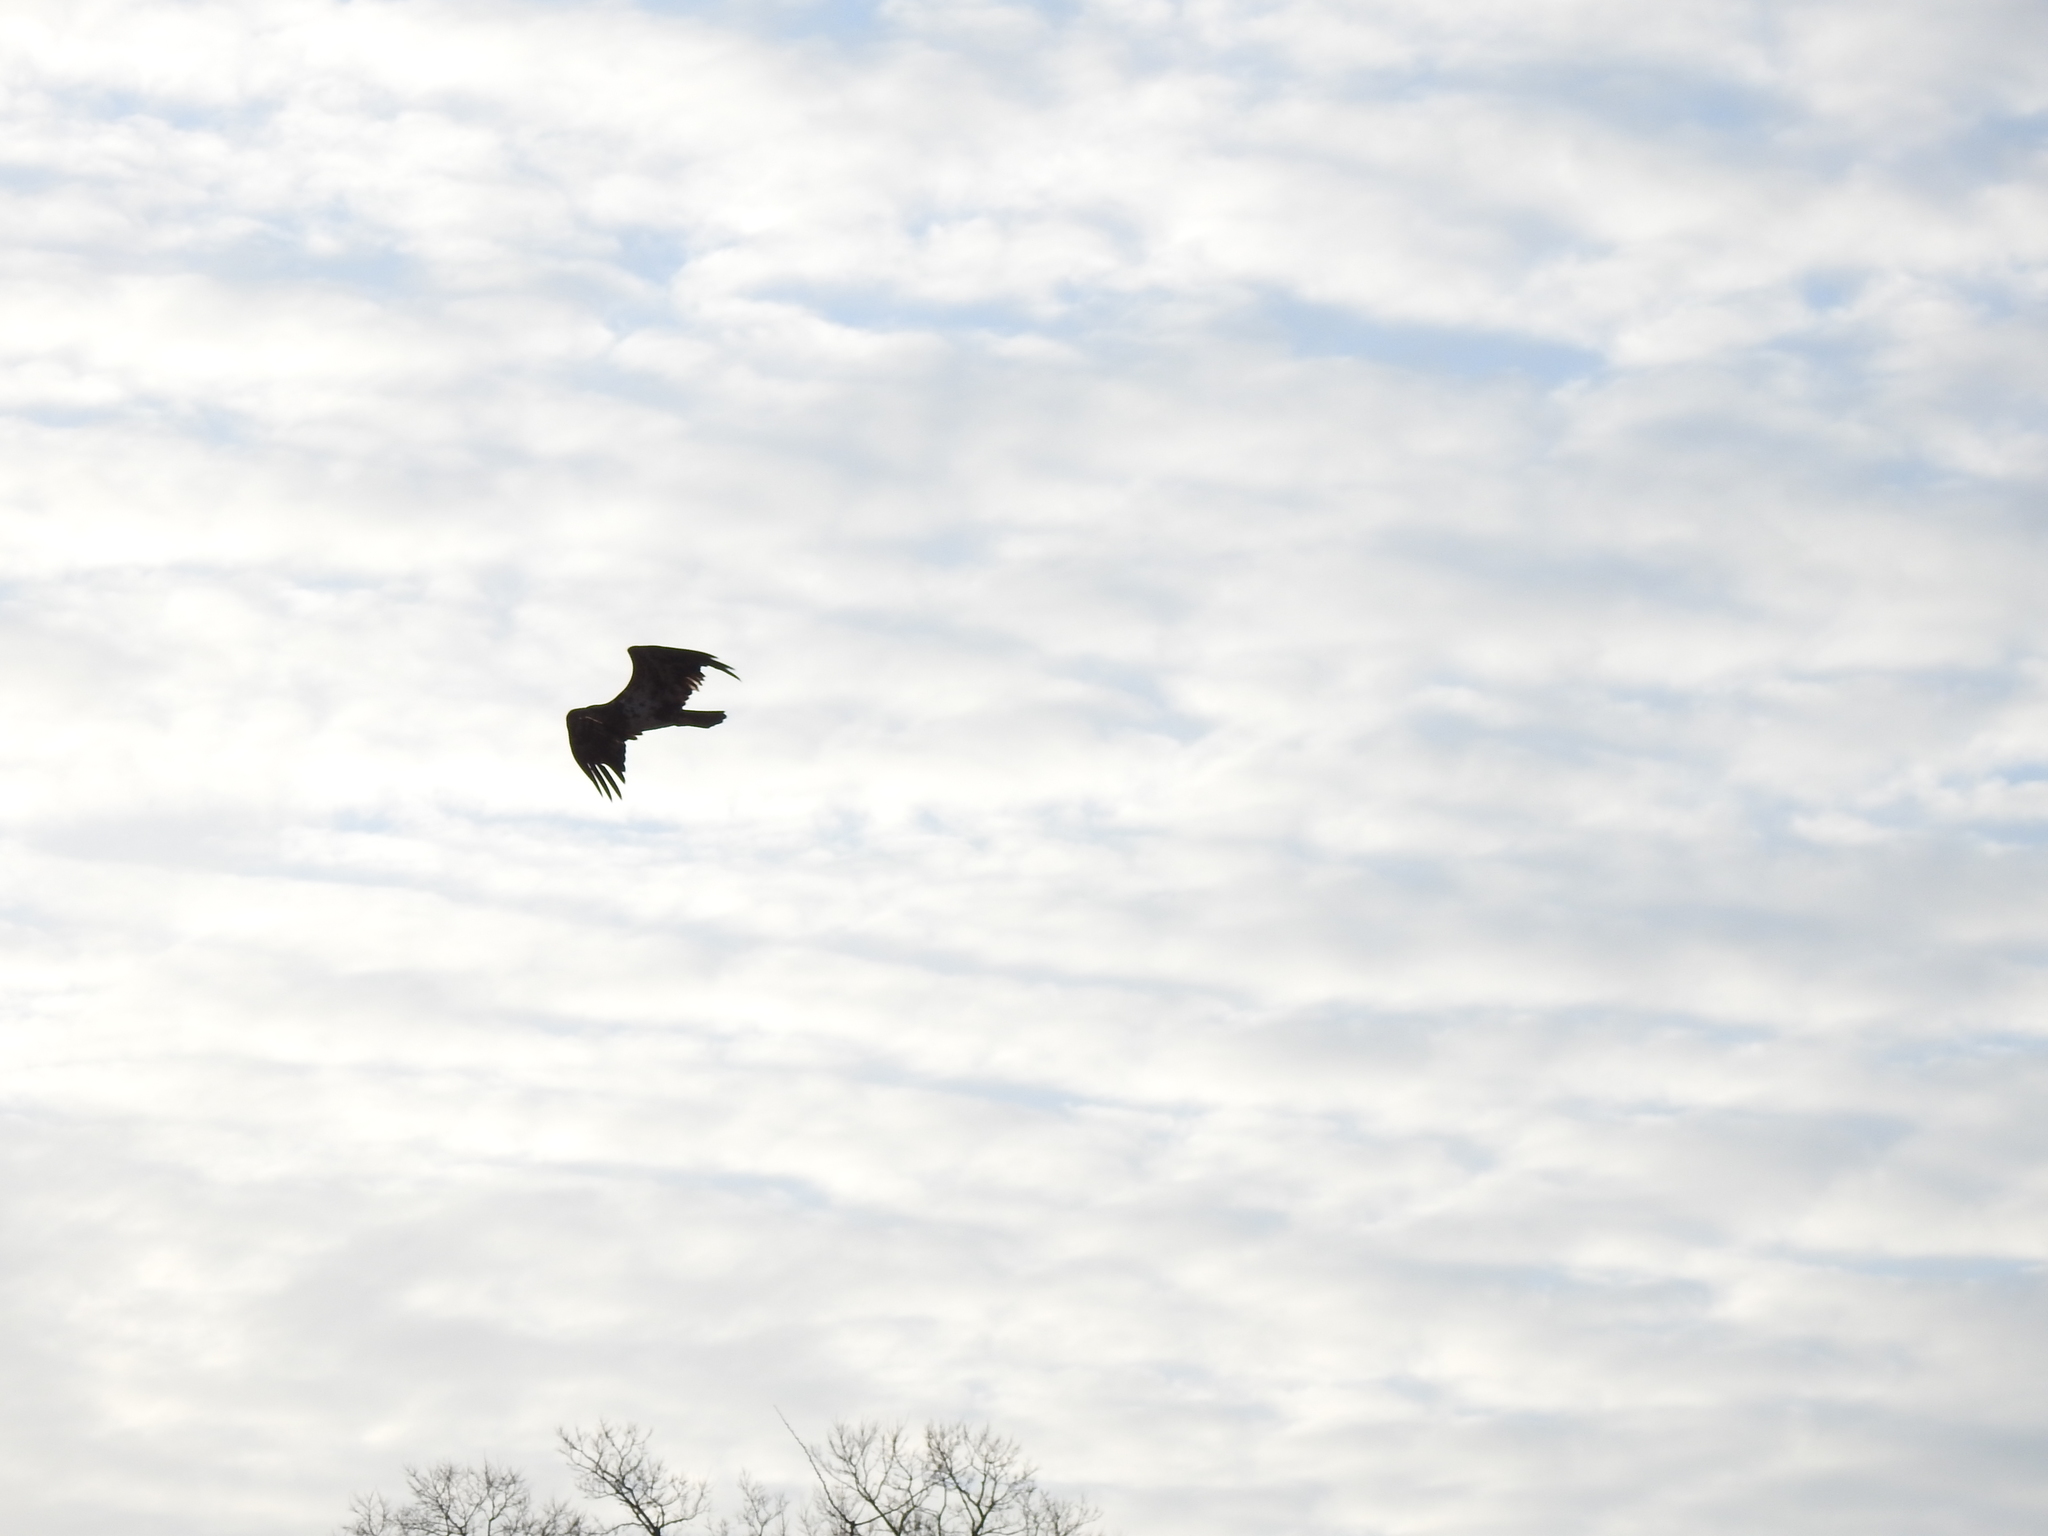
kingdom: Animalia
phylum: Chordata
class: Aves
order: Accipitriformes
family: Accipitridae
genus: Haliaeetus
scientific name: Haliaeetus leucocephalus
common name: Bald eagle
